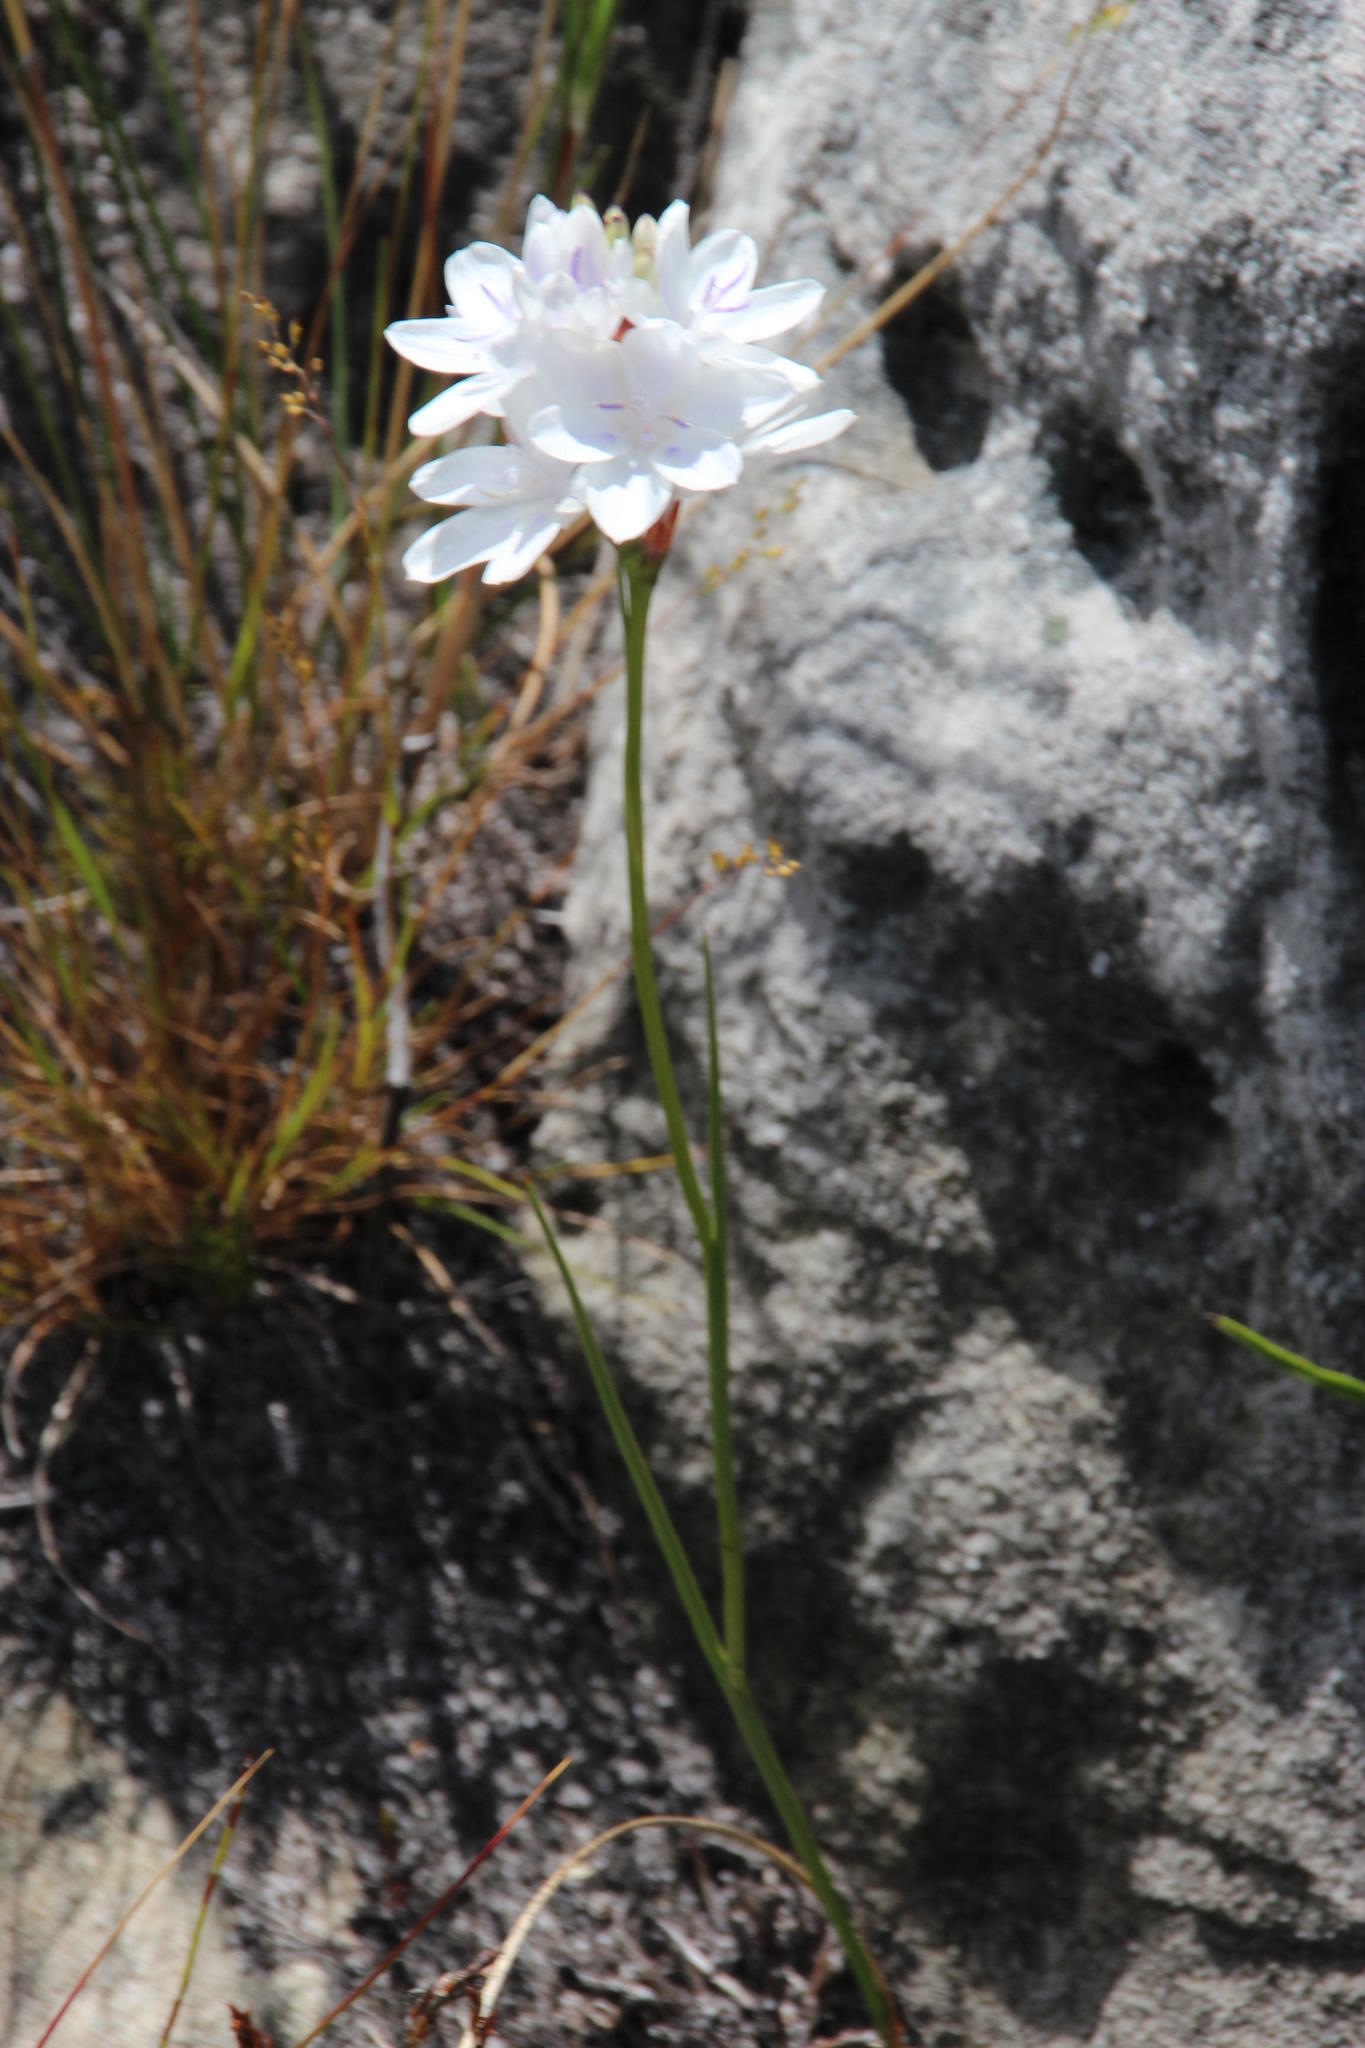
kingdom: Plantae
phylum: Tracheophyta
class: Liliopsida
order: Asparagales
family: Iridaceae
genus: Thereianthus
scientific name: Thereianthus ixioides
